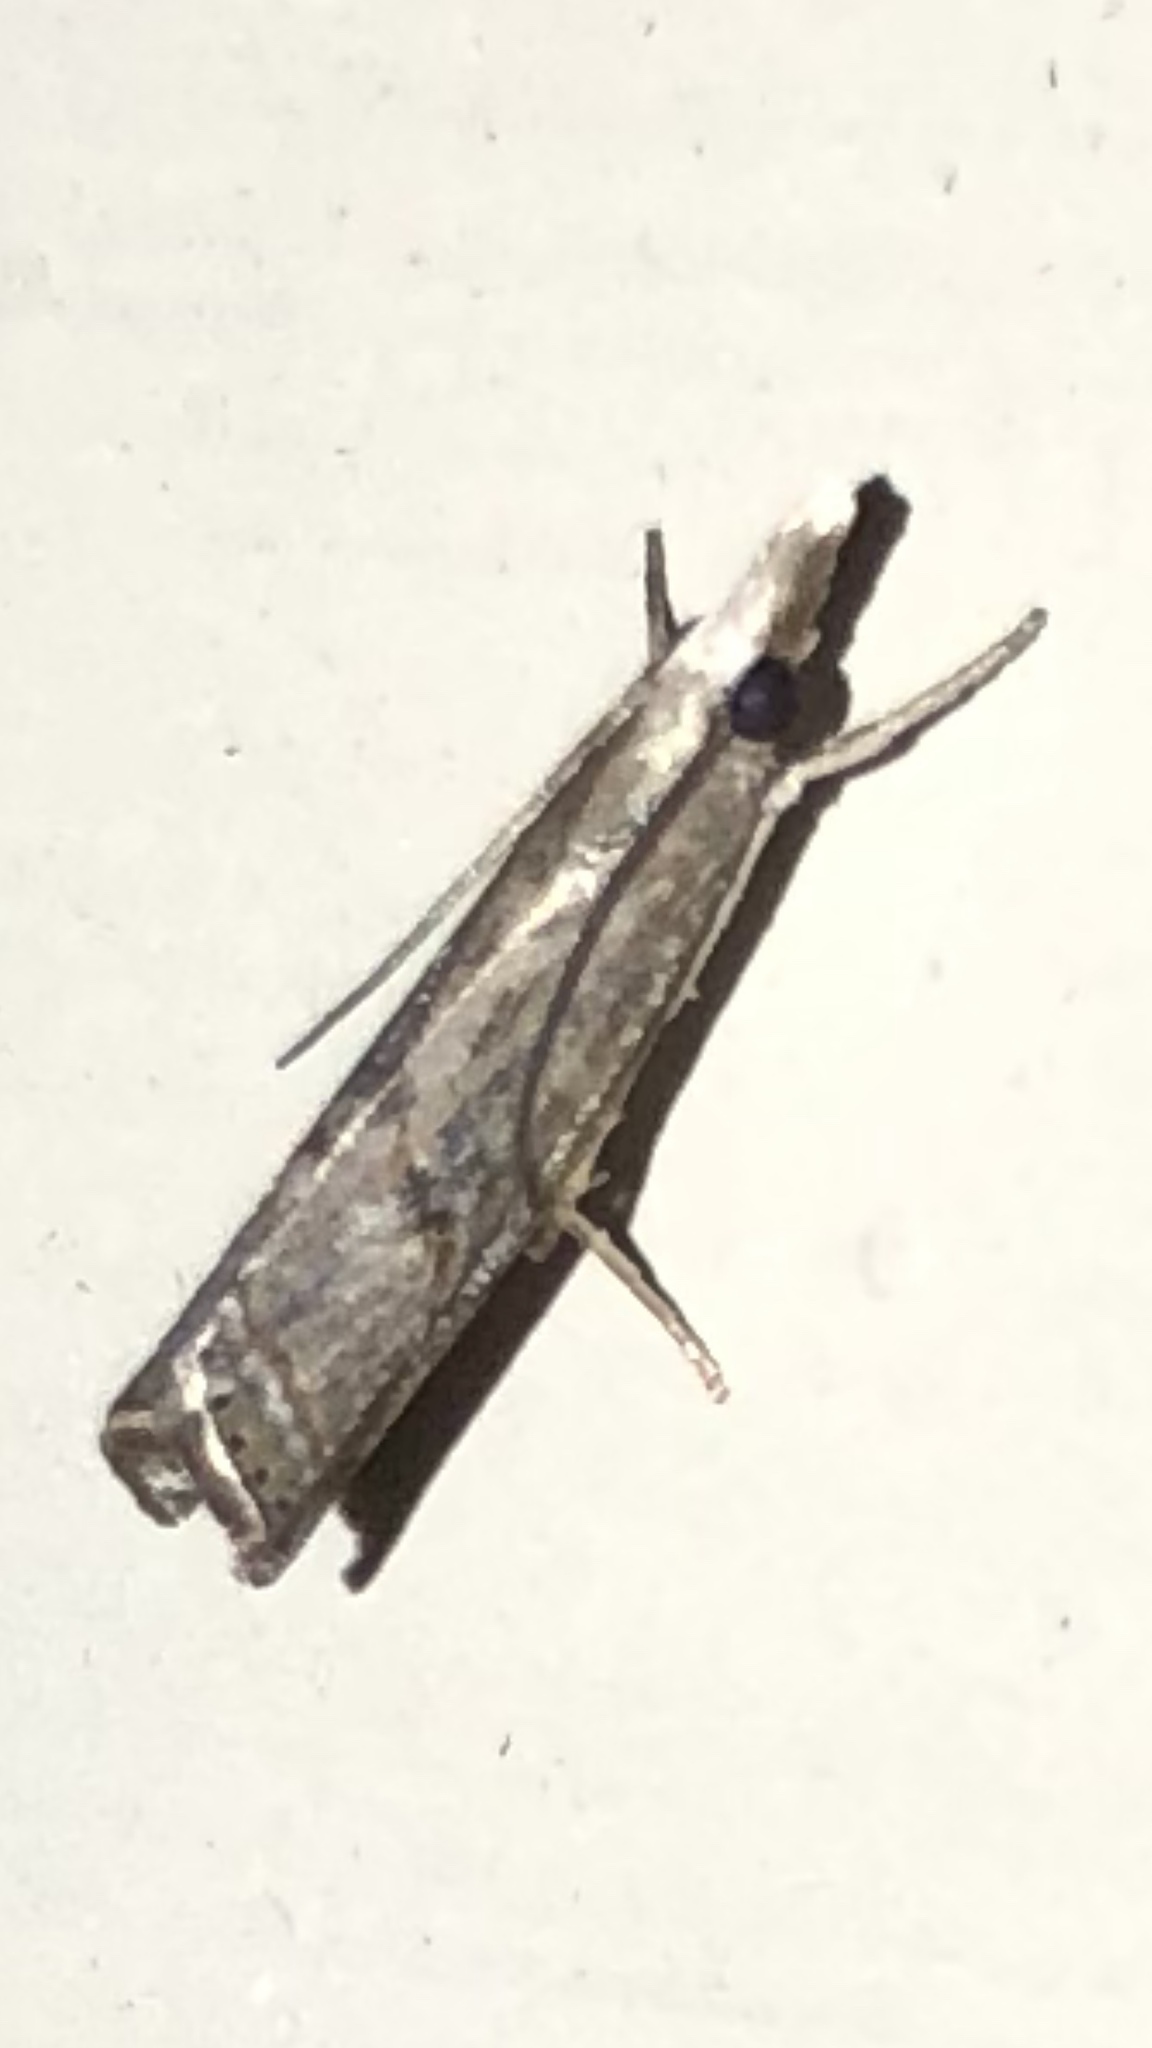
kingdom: Animalia
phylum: Arthropoda
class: Insecta
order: Lepidoptera
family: Crambidae
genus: Parapediasia
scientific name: Parapediasia teterellus
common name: Bluegrass webworm moth
